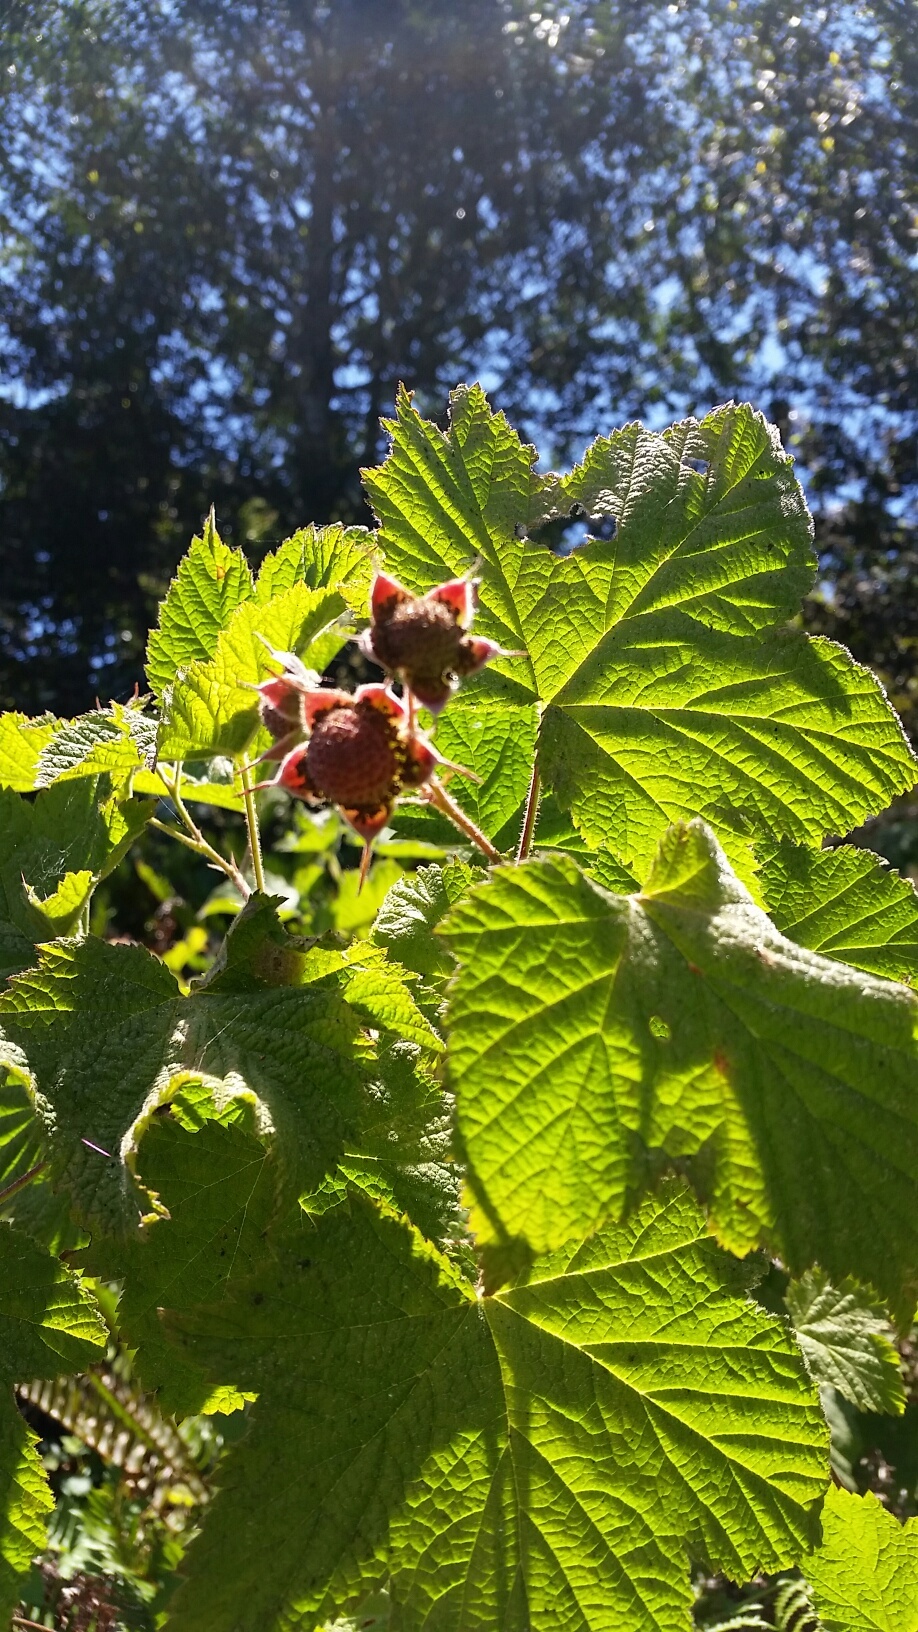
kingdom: Plantae
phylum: Tracheophyta
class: Magnoliopsida
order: Rosales
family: Rosaceae
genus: Rubus
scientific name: Rubus parviflorus
